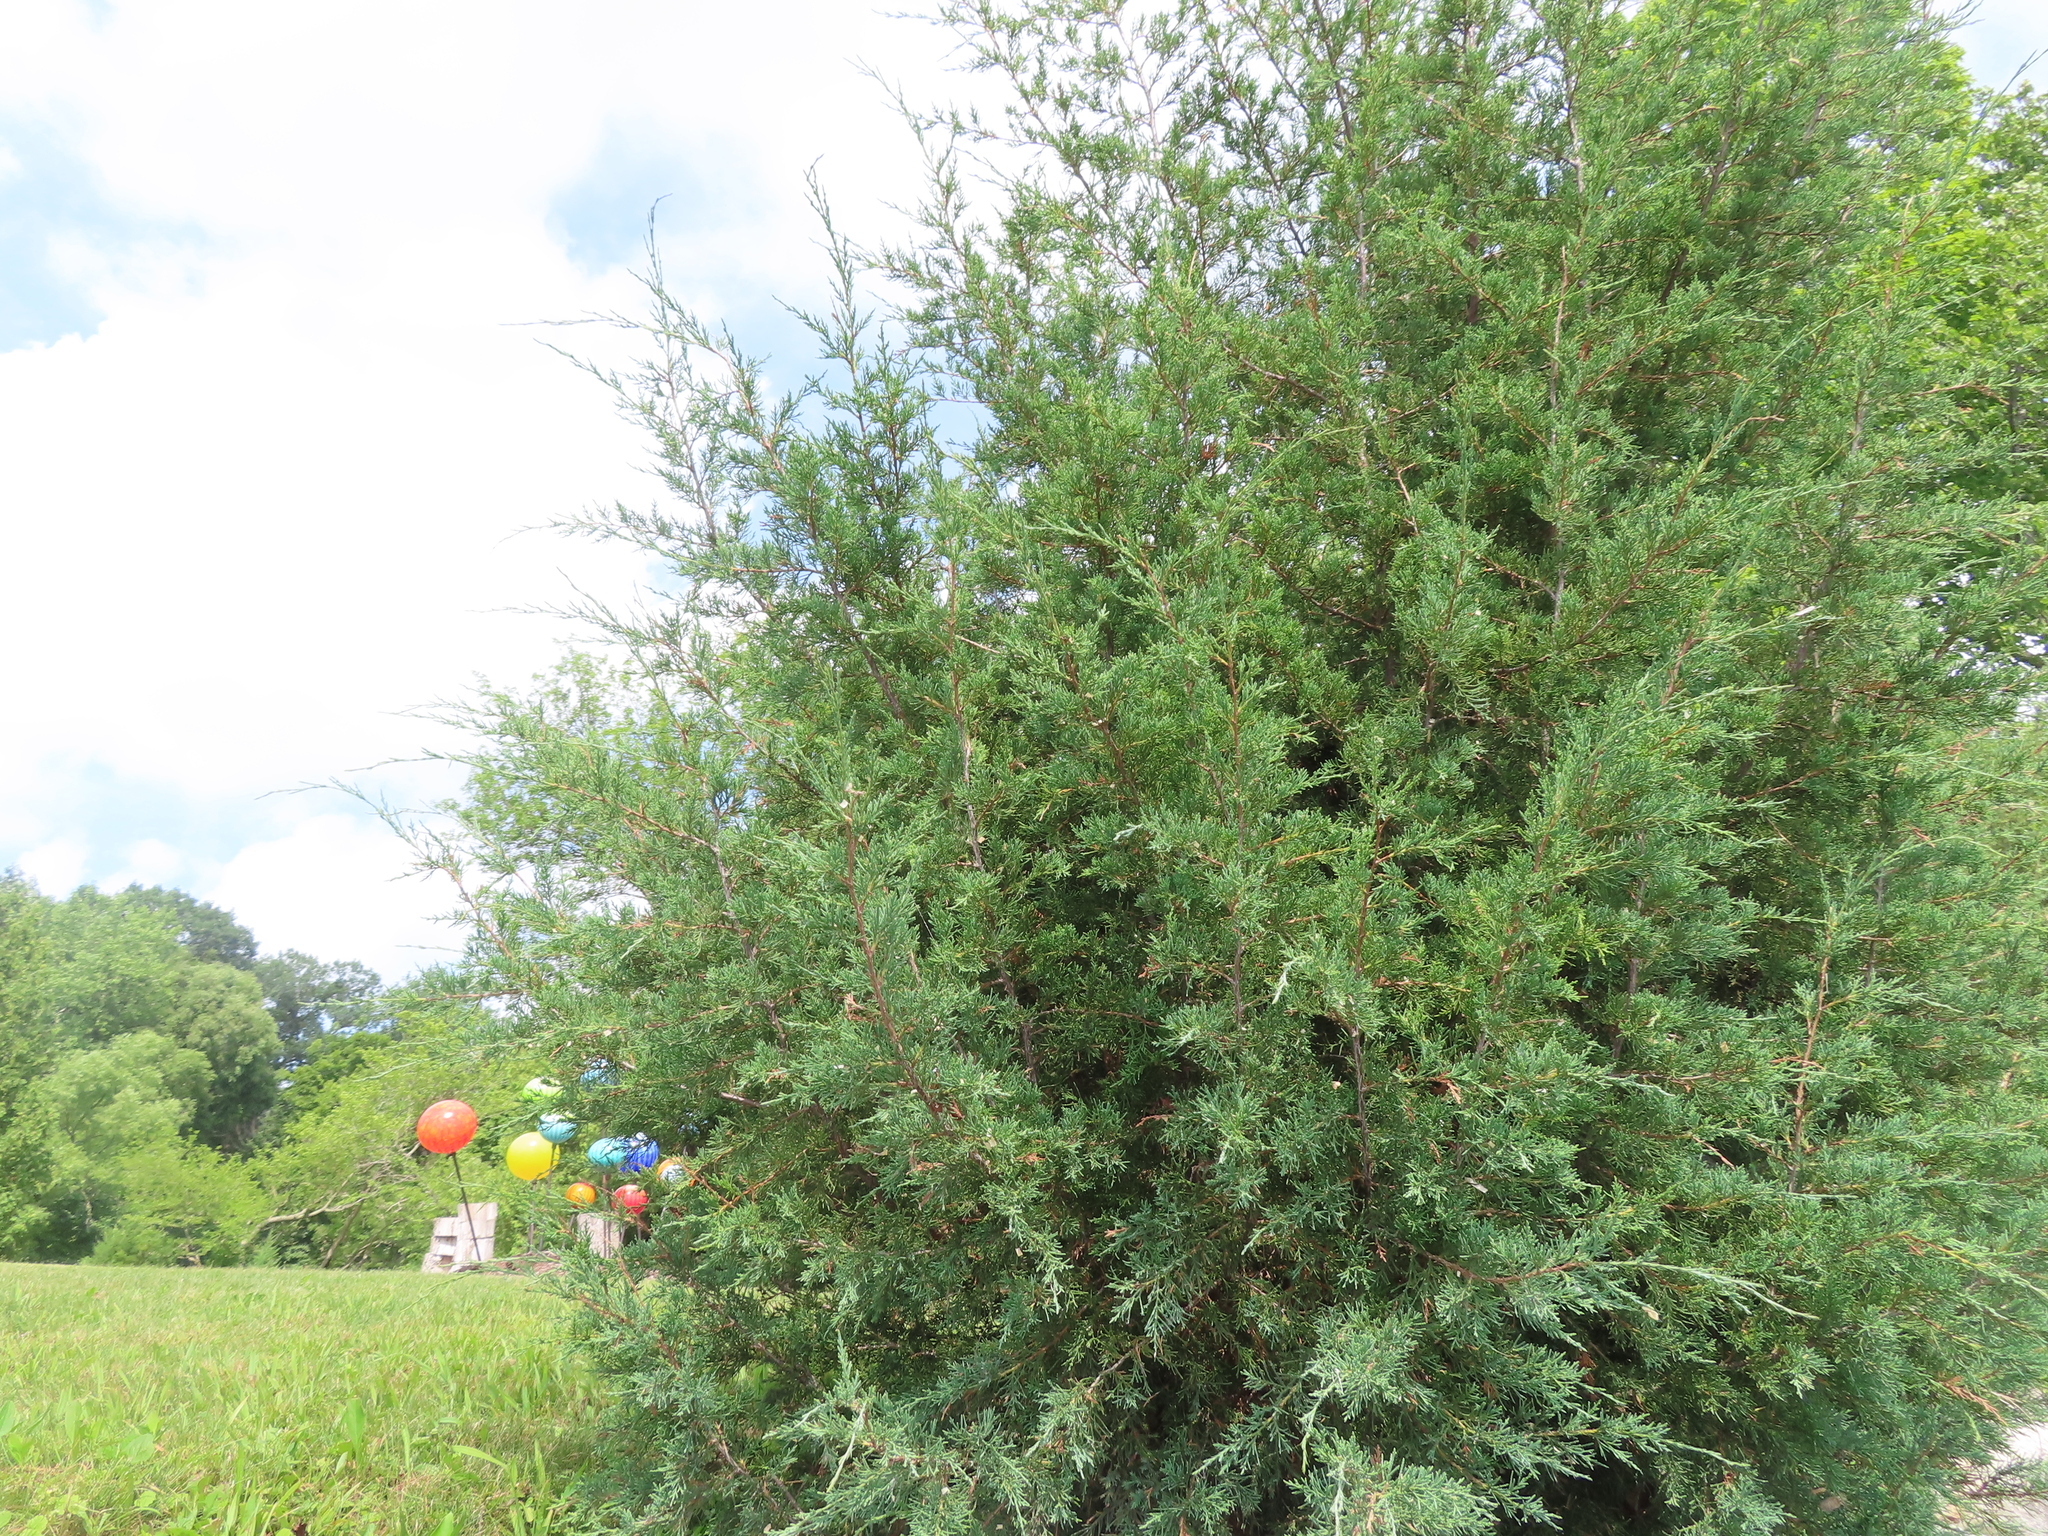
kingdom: Plantae
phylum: Tracheophyta
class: Pinopsida
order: Pinales
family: Cupressaceae
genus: Juniperus
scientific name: Juniperus virginiana
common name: Red juniper
